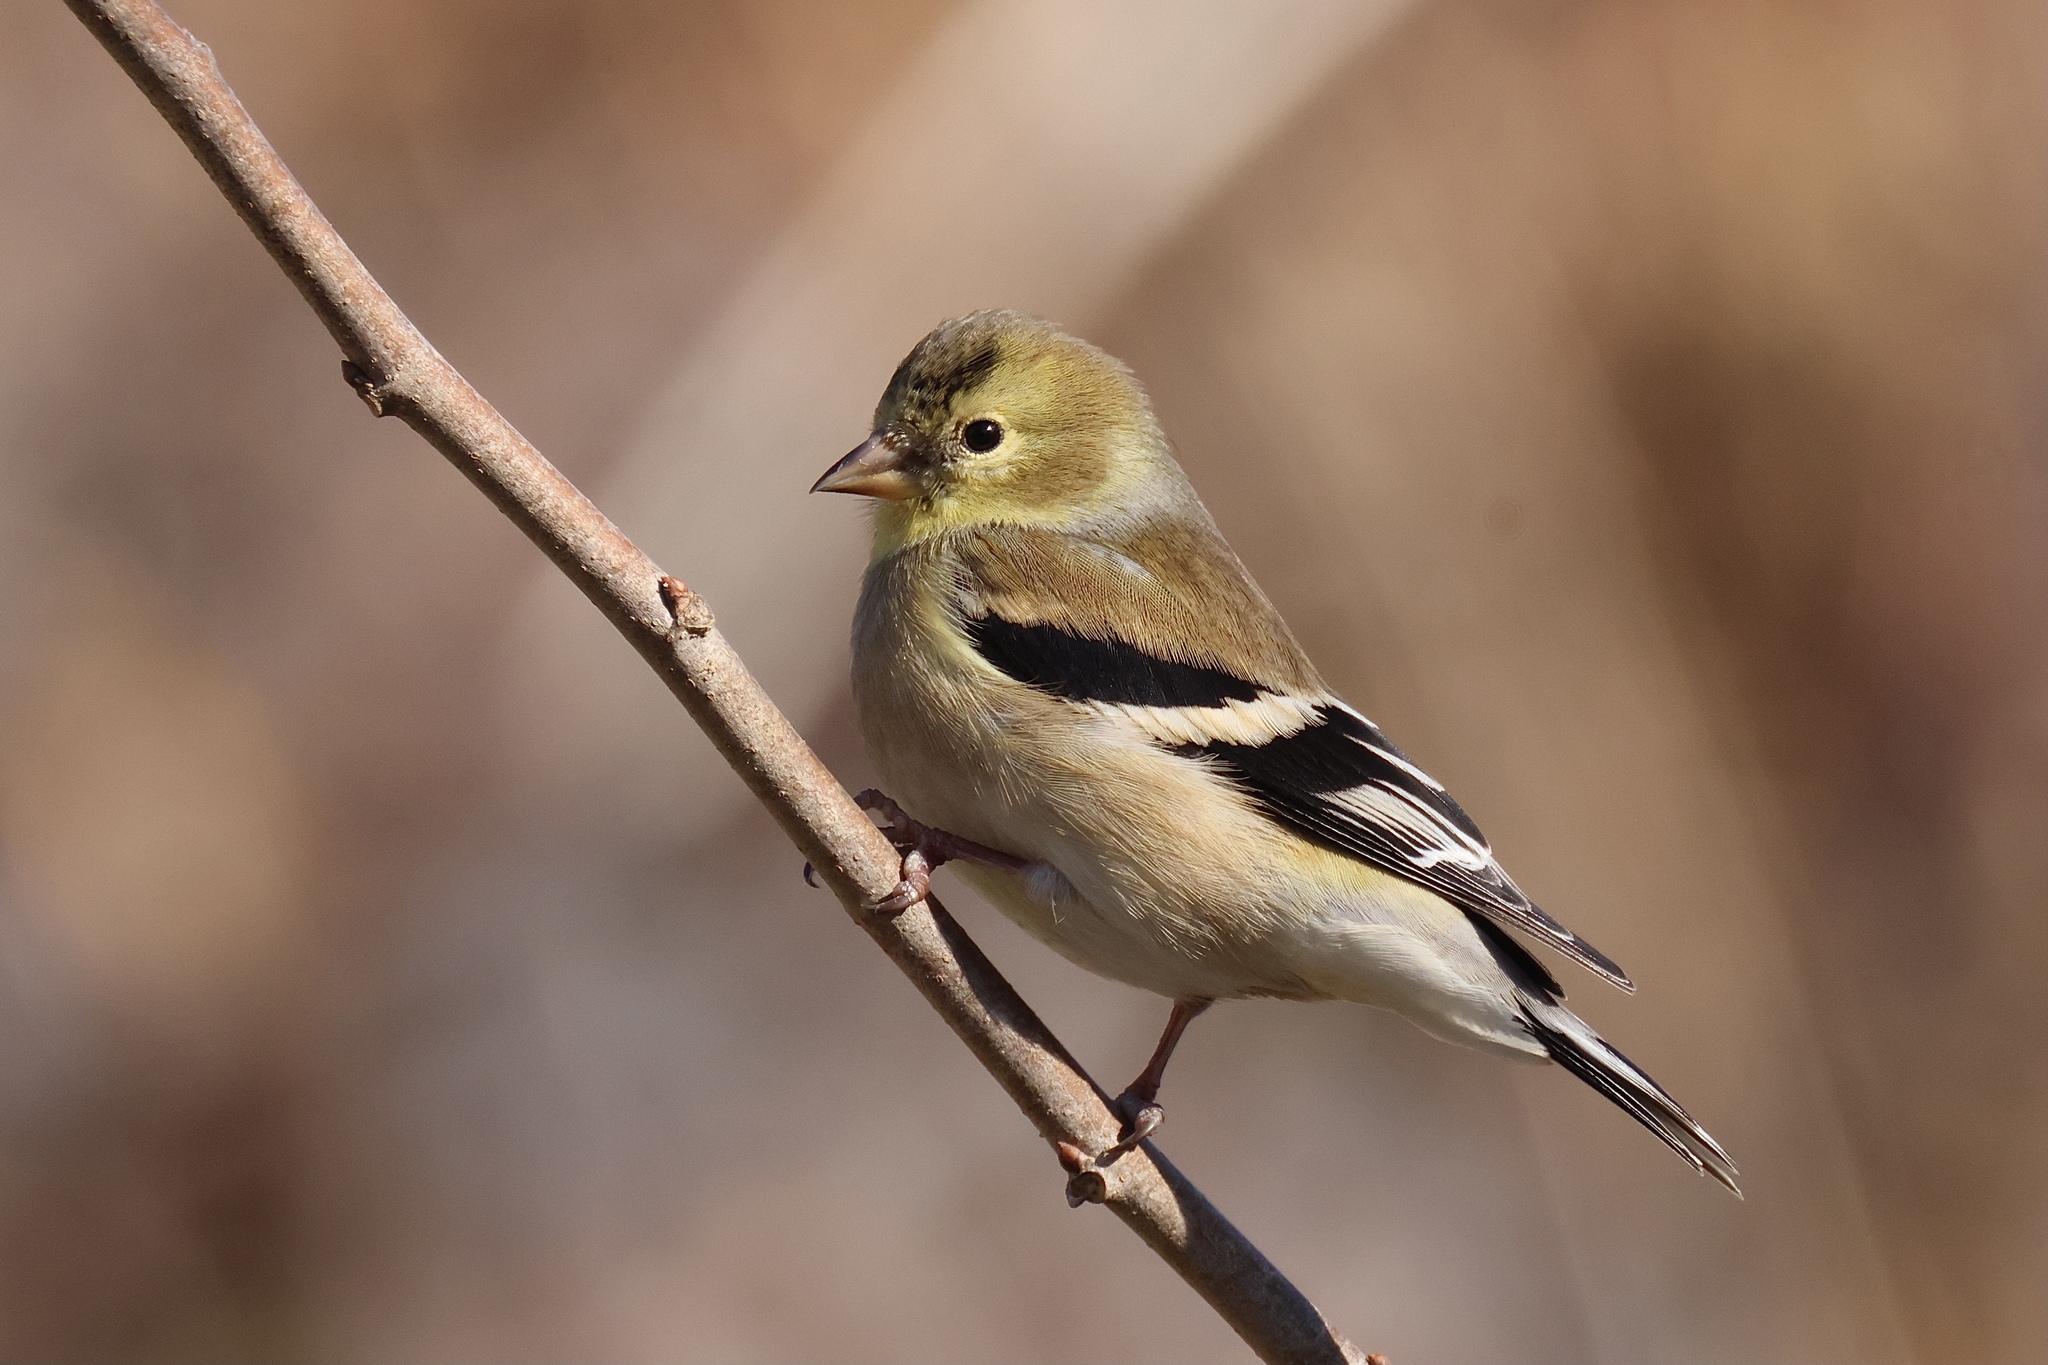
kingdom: Animalia
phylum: Chordata
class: Aves
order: Passeriformes
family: Fringillidae
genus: Spinus
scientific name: Spinus tristis
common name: American goldfinch
